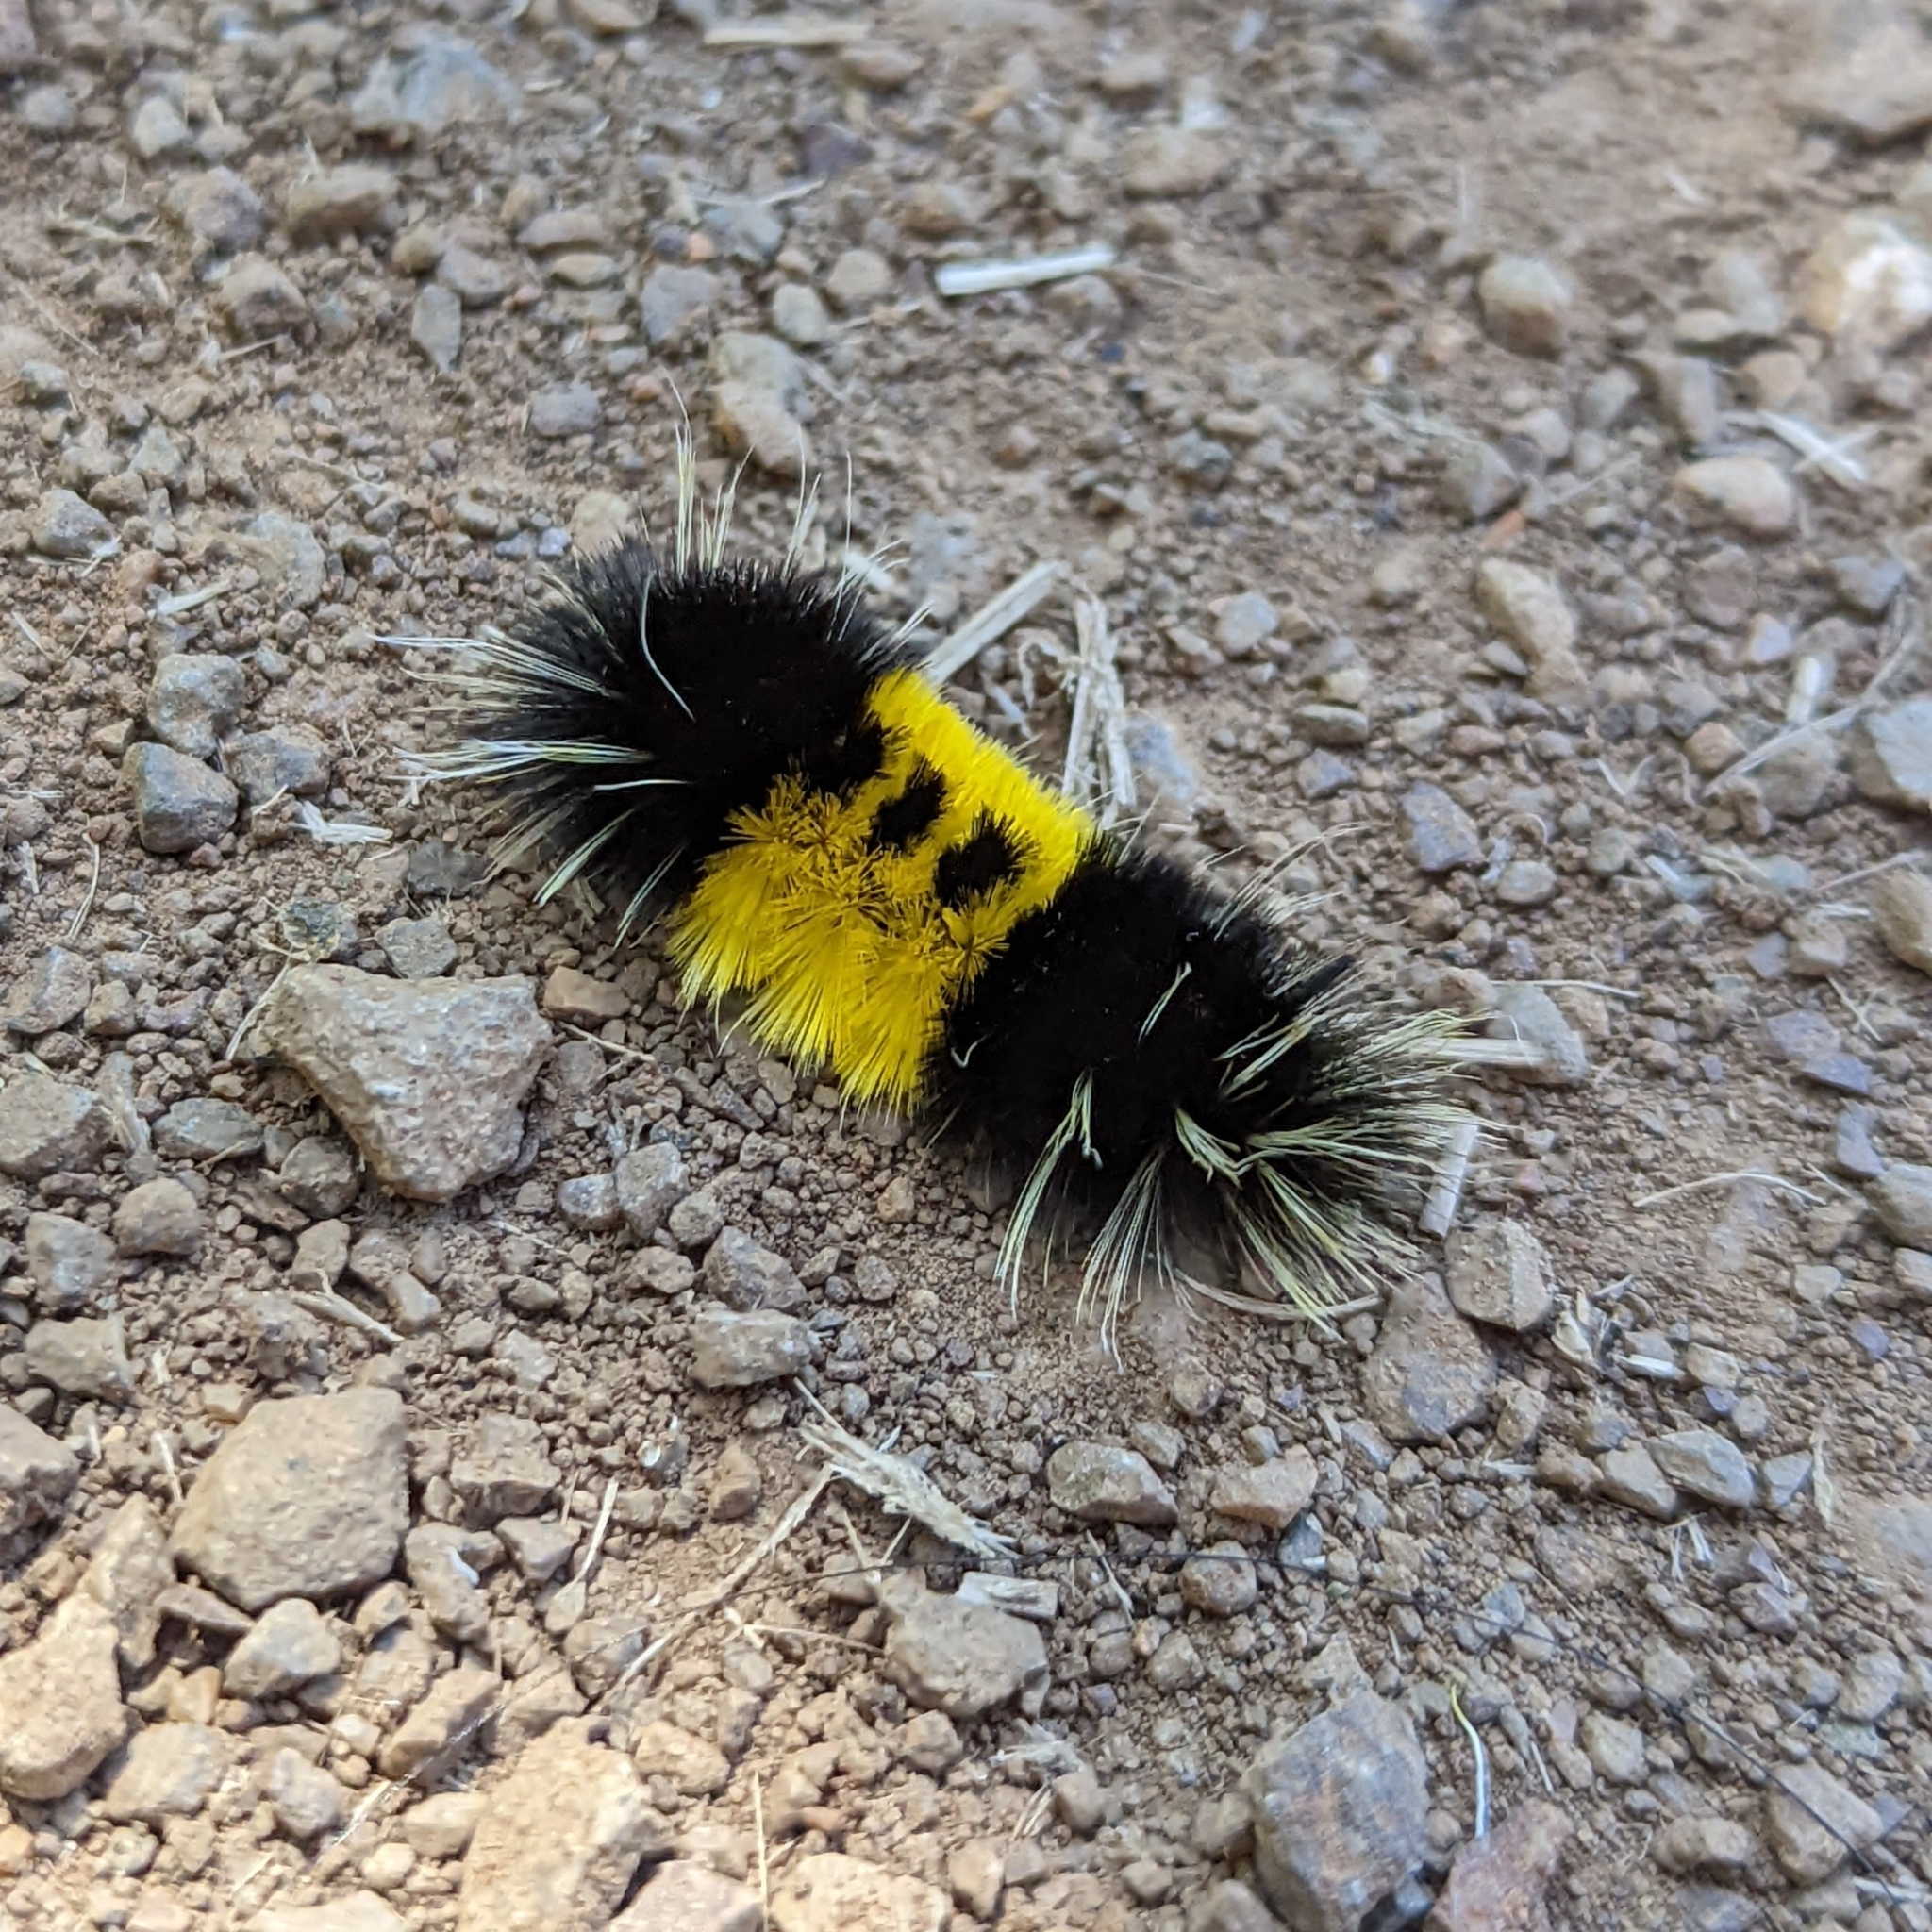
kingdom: Animalia
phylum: Arthropoda
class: Insecta
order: Lepidoptera
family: Erebidae
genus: Lophocampa
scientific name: Lophocampa maculata
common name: Spotted tussock moth
